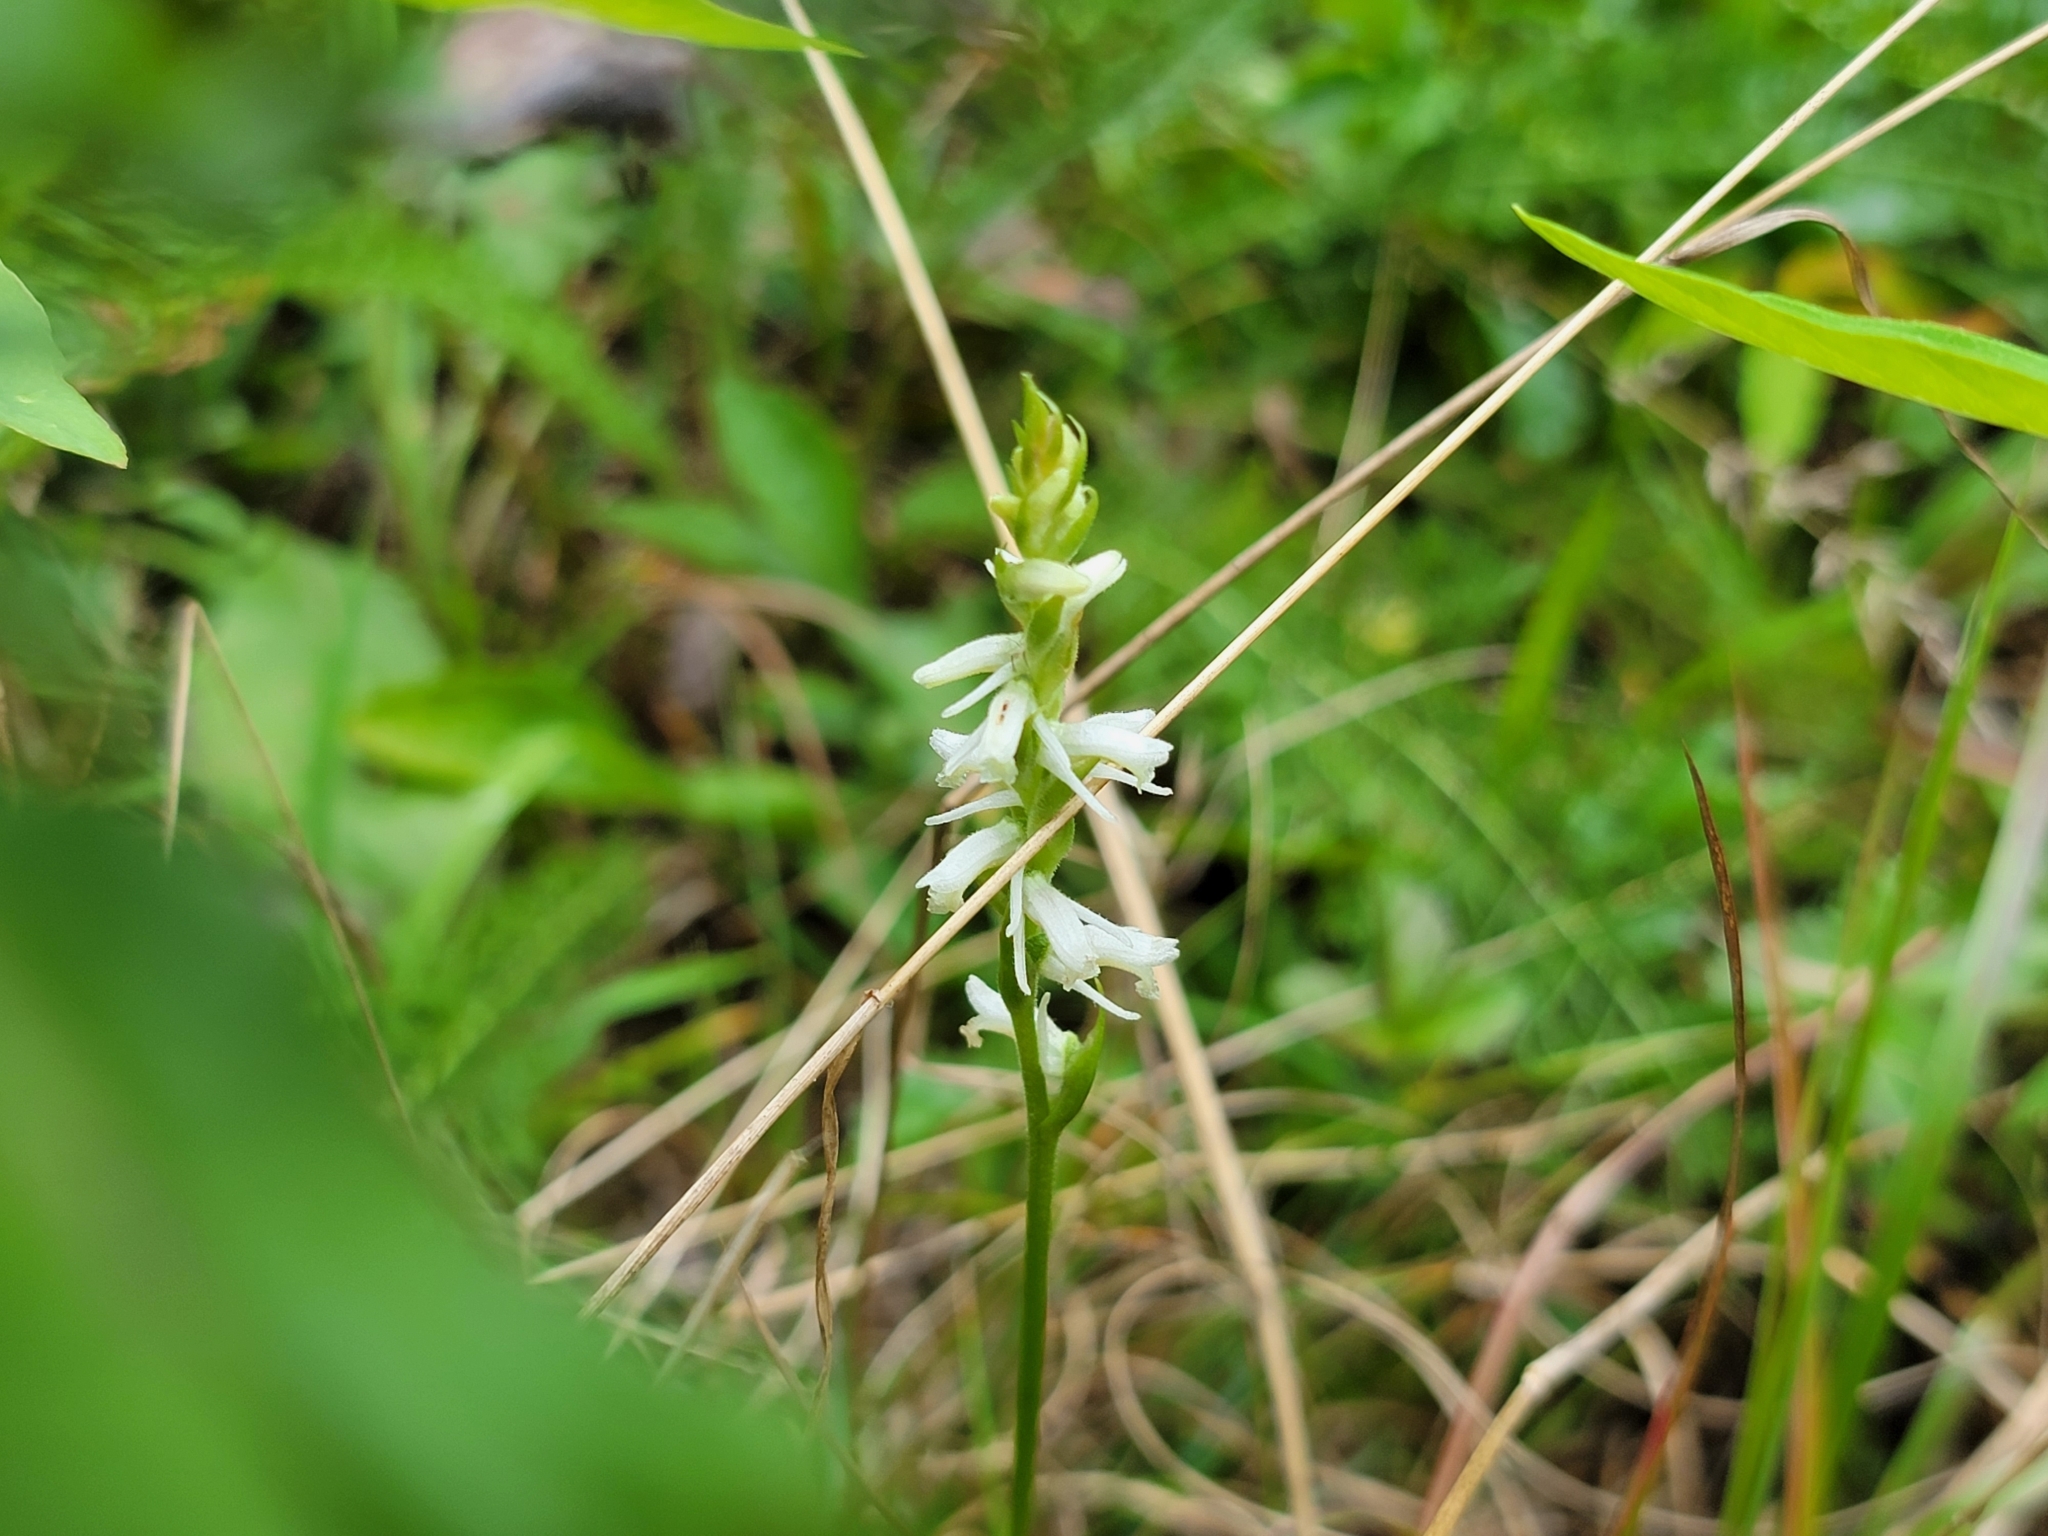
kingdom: Plantae
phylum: Tracheophyta
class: Liliopsida
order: Asparagales
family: Orchidaceae
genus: Spiranthes
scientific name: Spiranthes vernalis
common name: Spring ladies'-tresses
